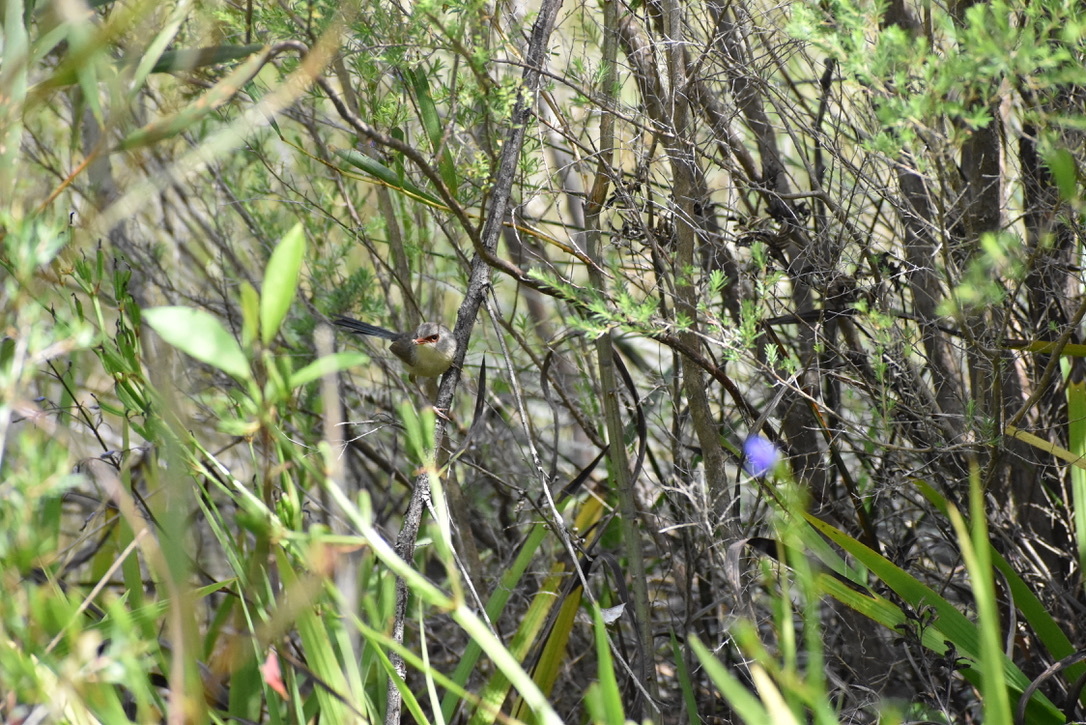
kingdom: Animalia
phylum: Chordata
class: Aves
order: Passeriformes
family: Maluridae
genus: Malurus
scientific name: Malurus lamberti
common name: Variegated fairywren
